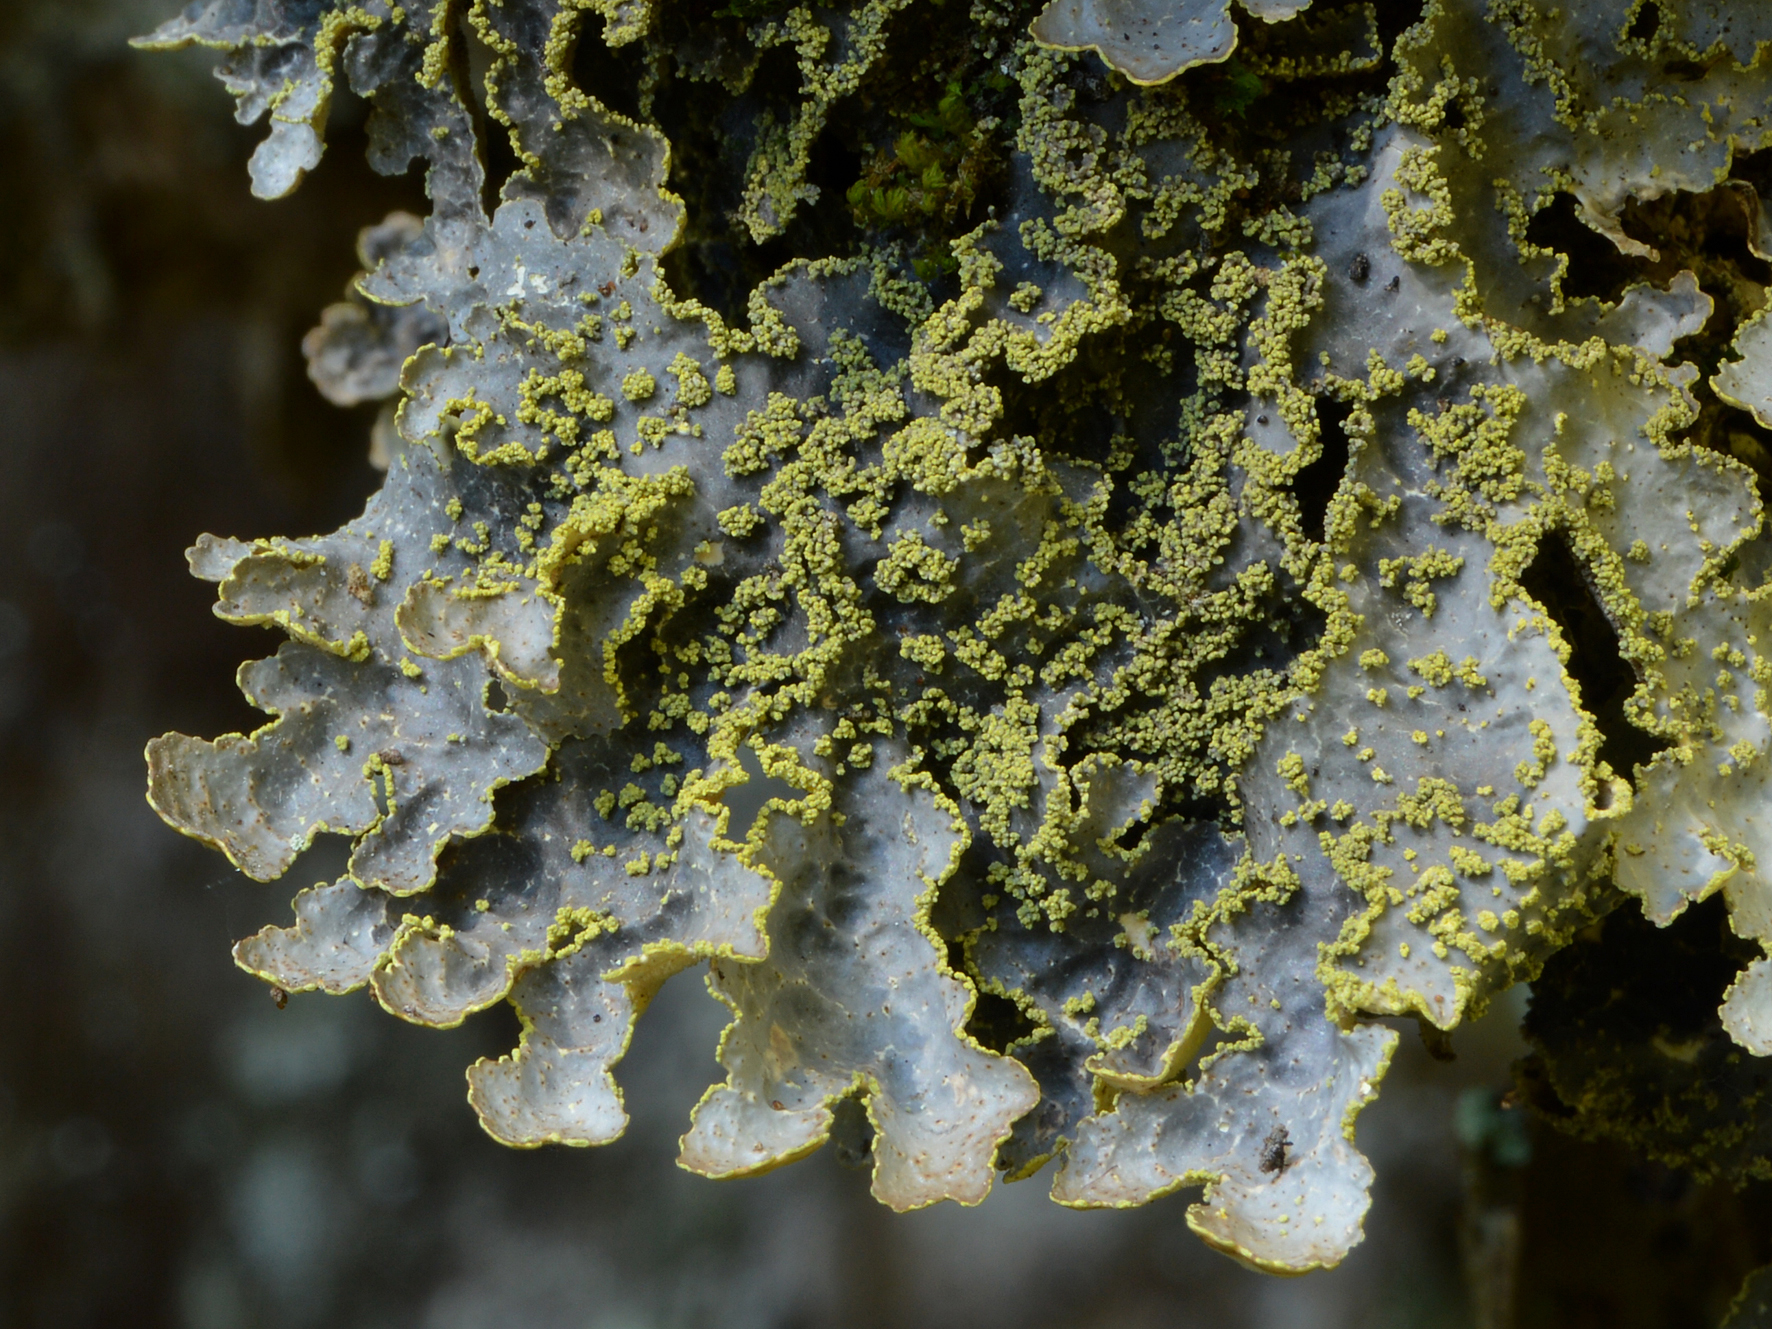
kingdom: Fungi
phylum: Ascomycota
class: Lecanoromycetes
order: Peltigerales
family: Lobariaceae
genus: Pseudocyphellaria
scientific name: Pseudocyphellaria crocata
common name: Golden specklebelly
